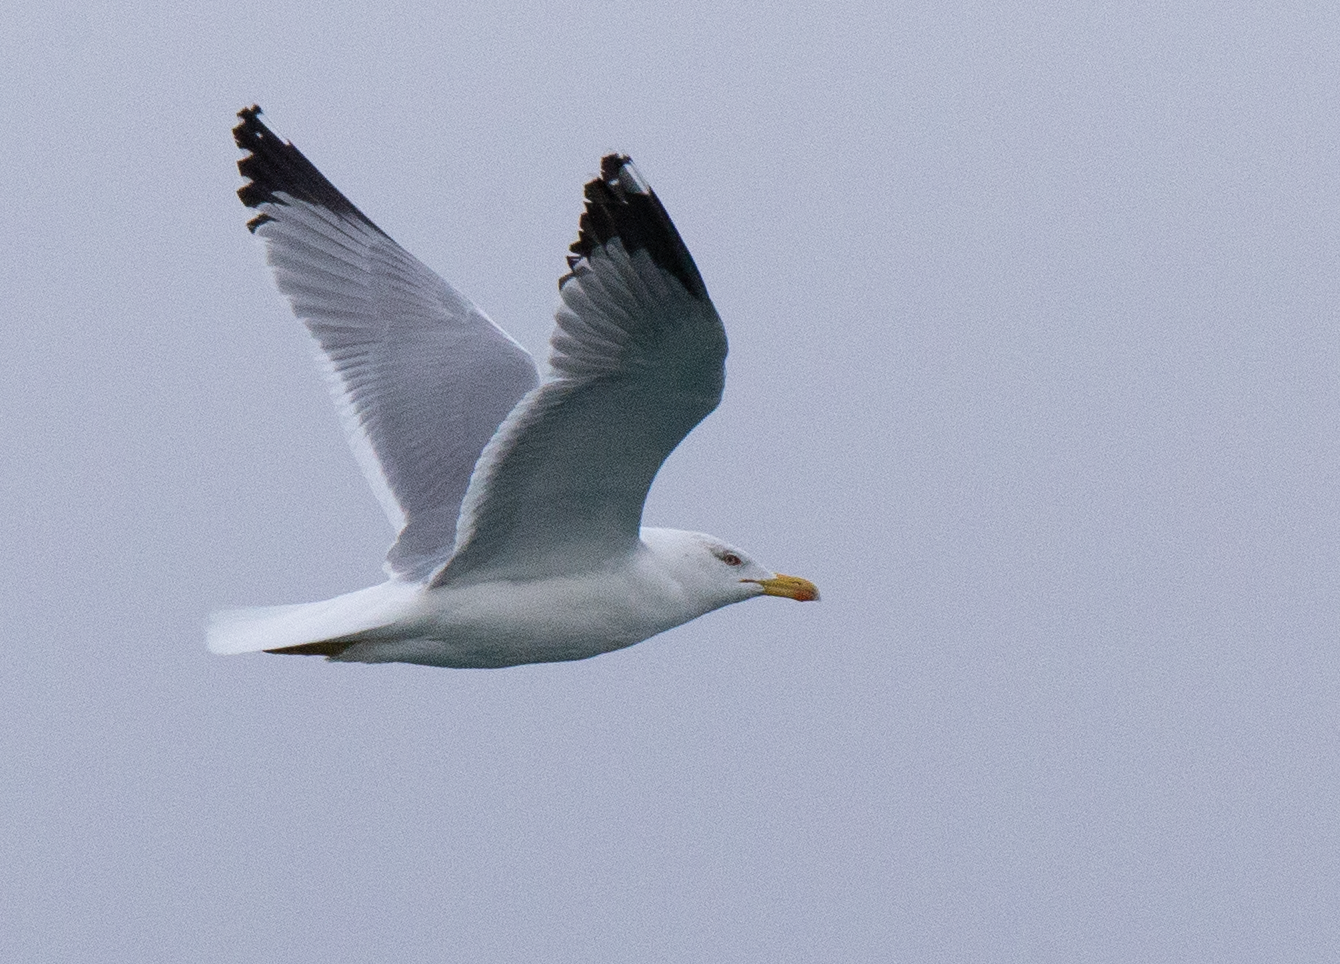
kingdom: Animalia
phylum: Chordata
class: Aves
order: Charadriiformes
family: Laridae
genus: Larus
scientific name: Larus michahellis
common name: Yellow-legged gull
